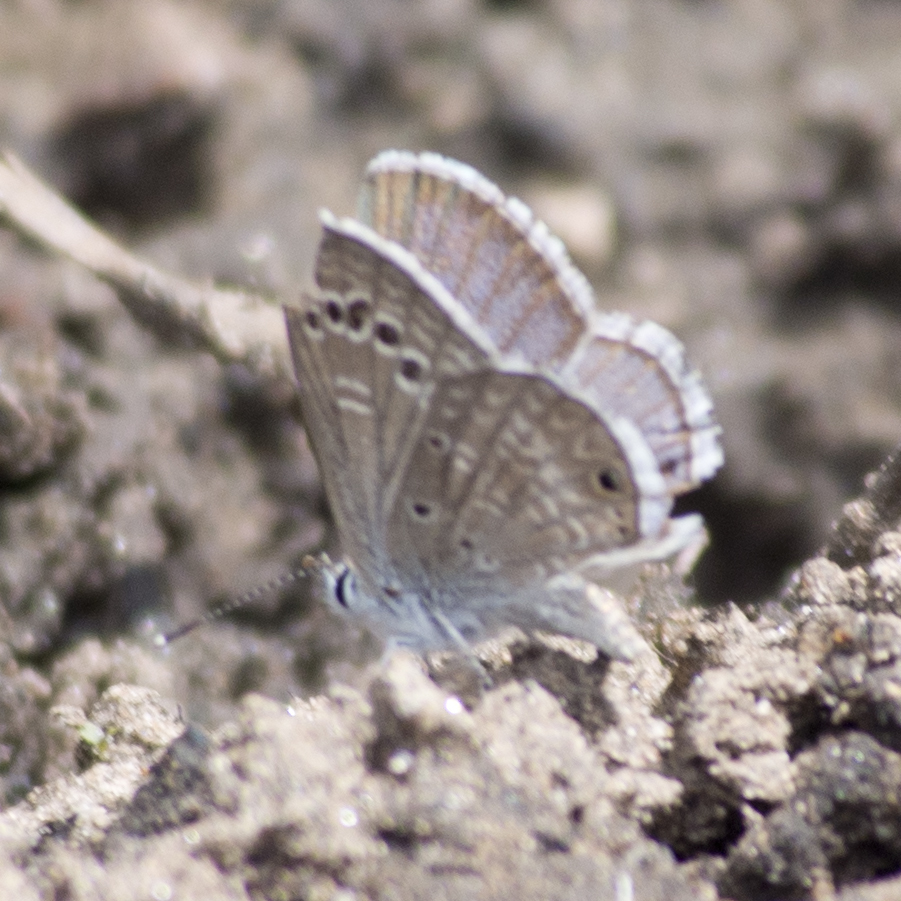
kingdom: Animalia
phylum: Arthropoda
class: Insecta
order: Lepidoptera
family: Lycaenidae
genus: Echinargus
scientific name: Echinargus isola
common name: Reakirt's blue
